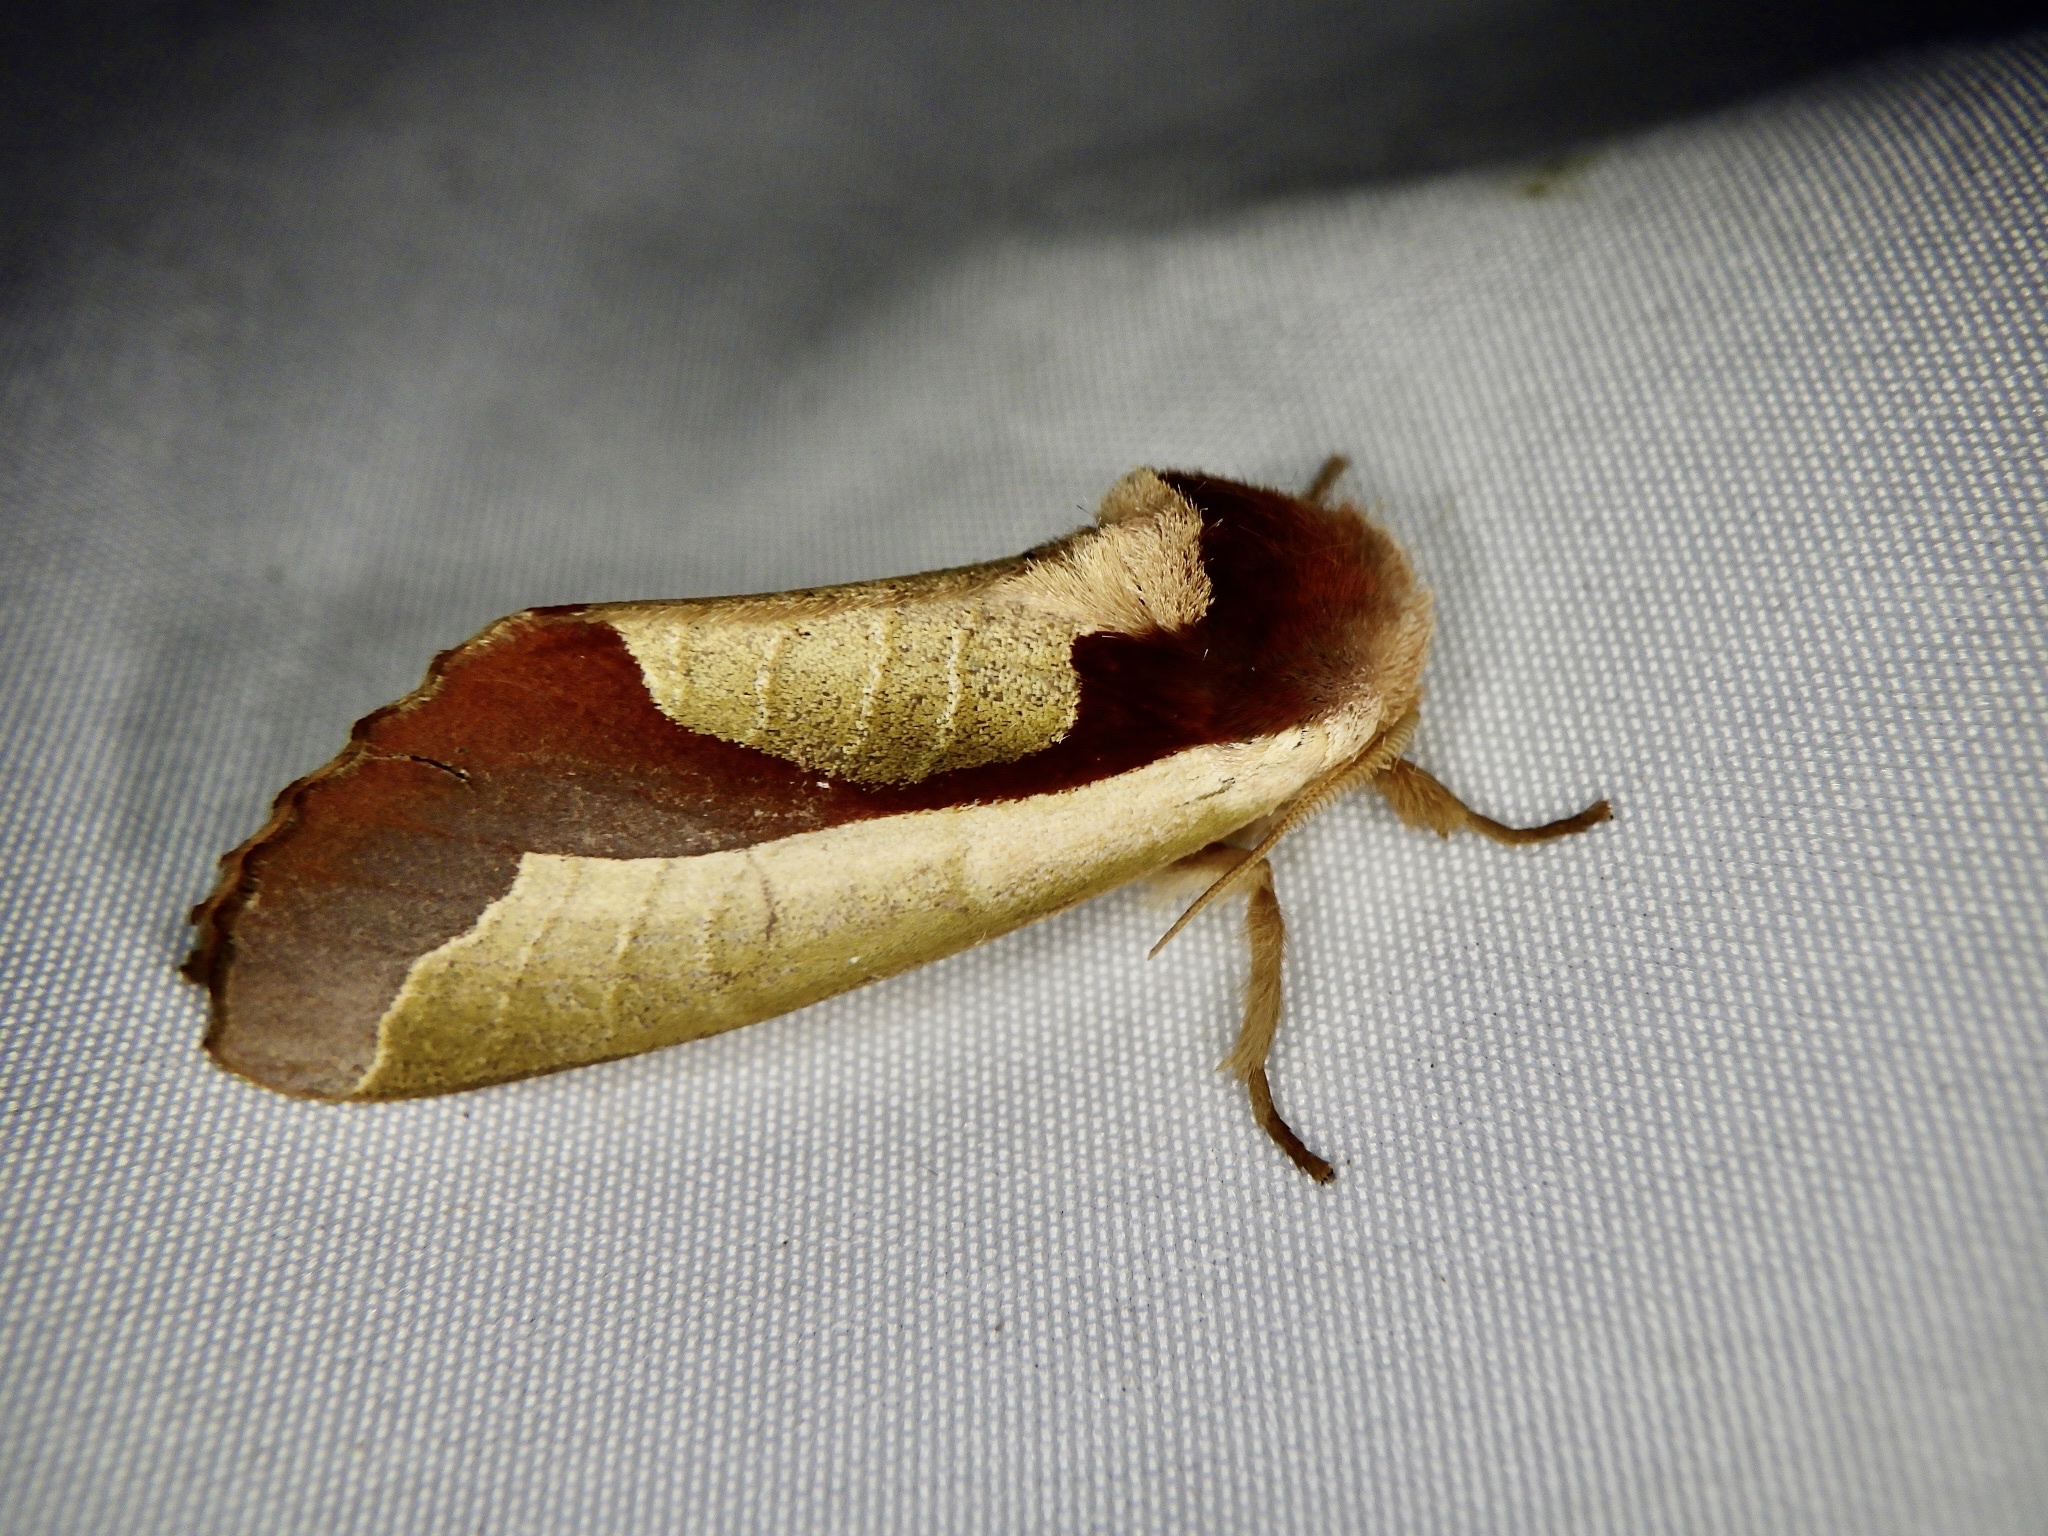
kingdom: Animalia
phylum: Arthropoda
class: Insecta
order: Lepidoptera
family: Notodontidae
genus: Uropyia
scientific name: Uropyia meticulodina
